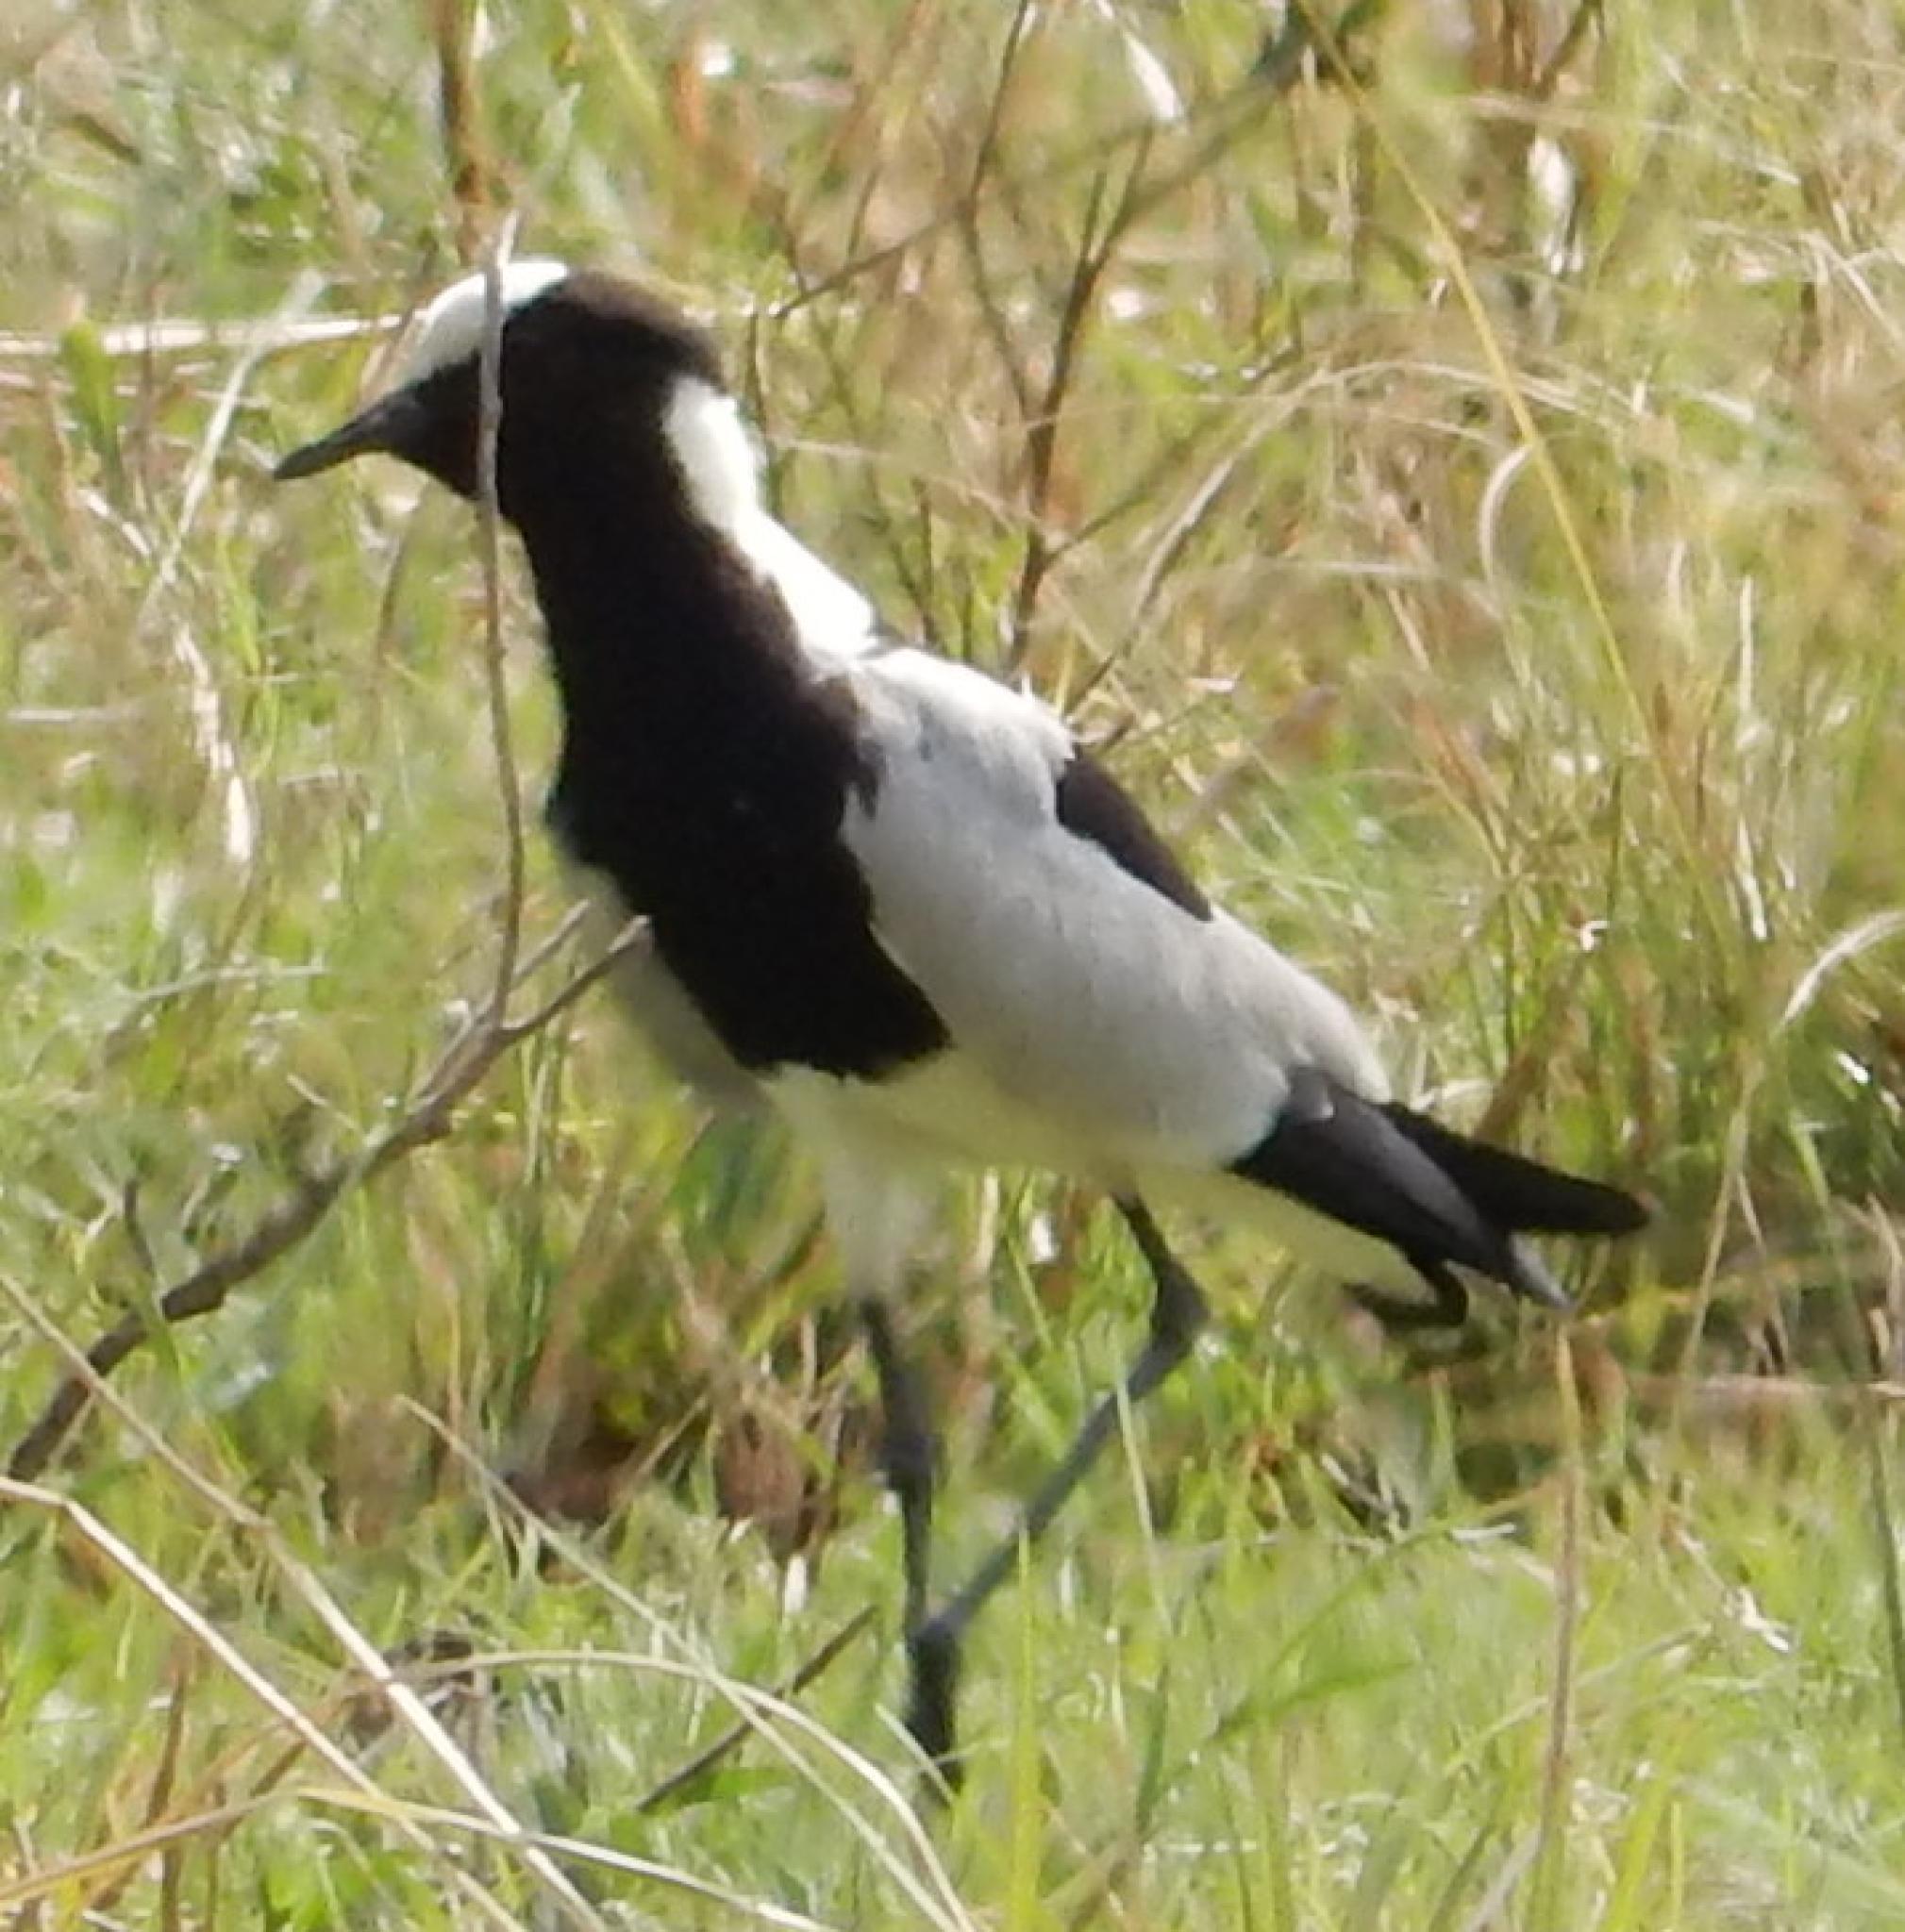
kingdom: Animalia
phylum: Chordata
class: Aves
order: Charadriiformes
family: Charadriidae
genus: Vanellus
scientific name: Vanellus armatus
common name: Blacksmith lapwing
